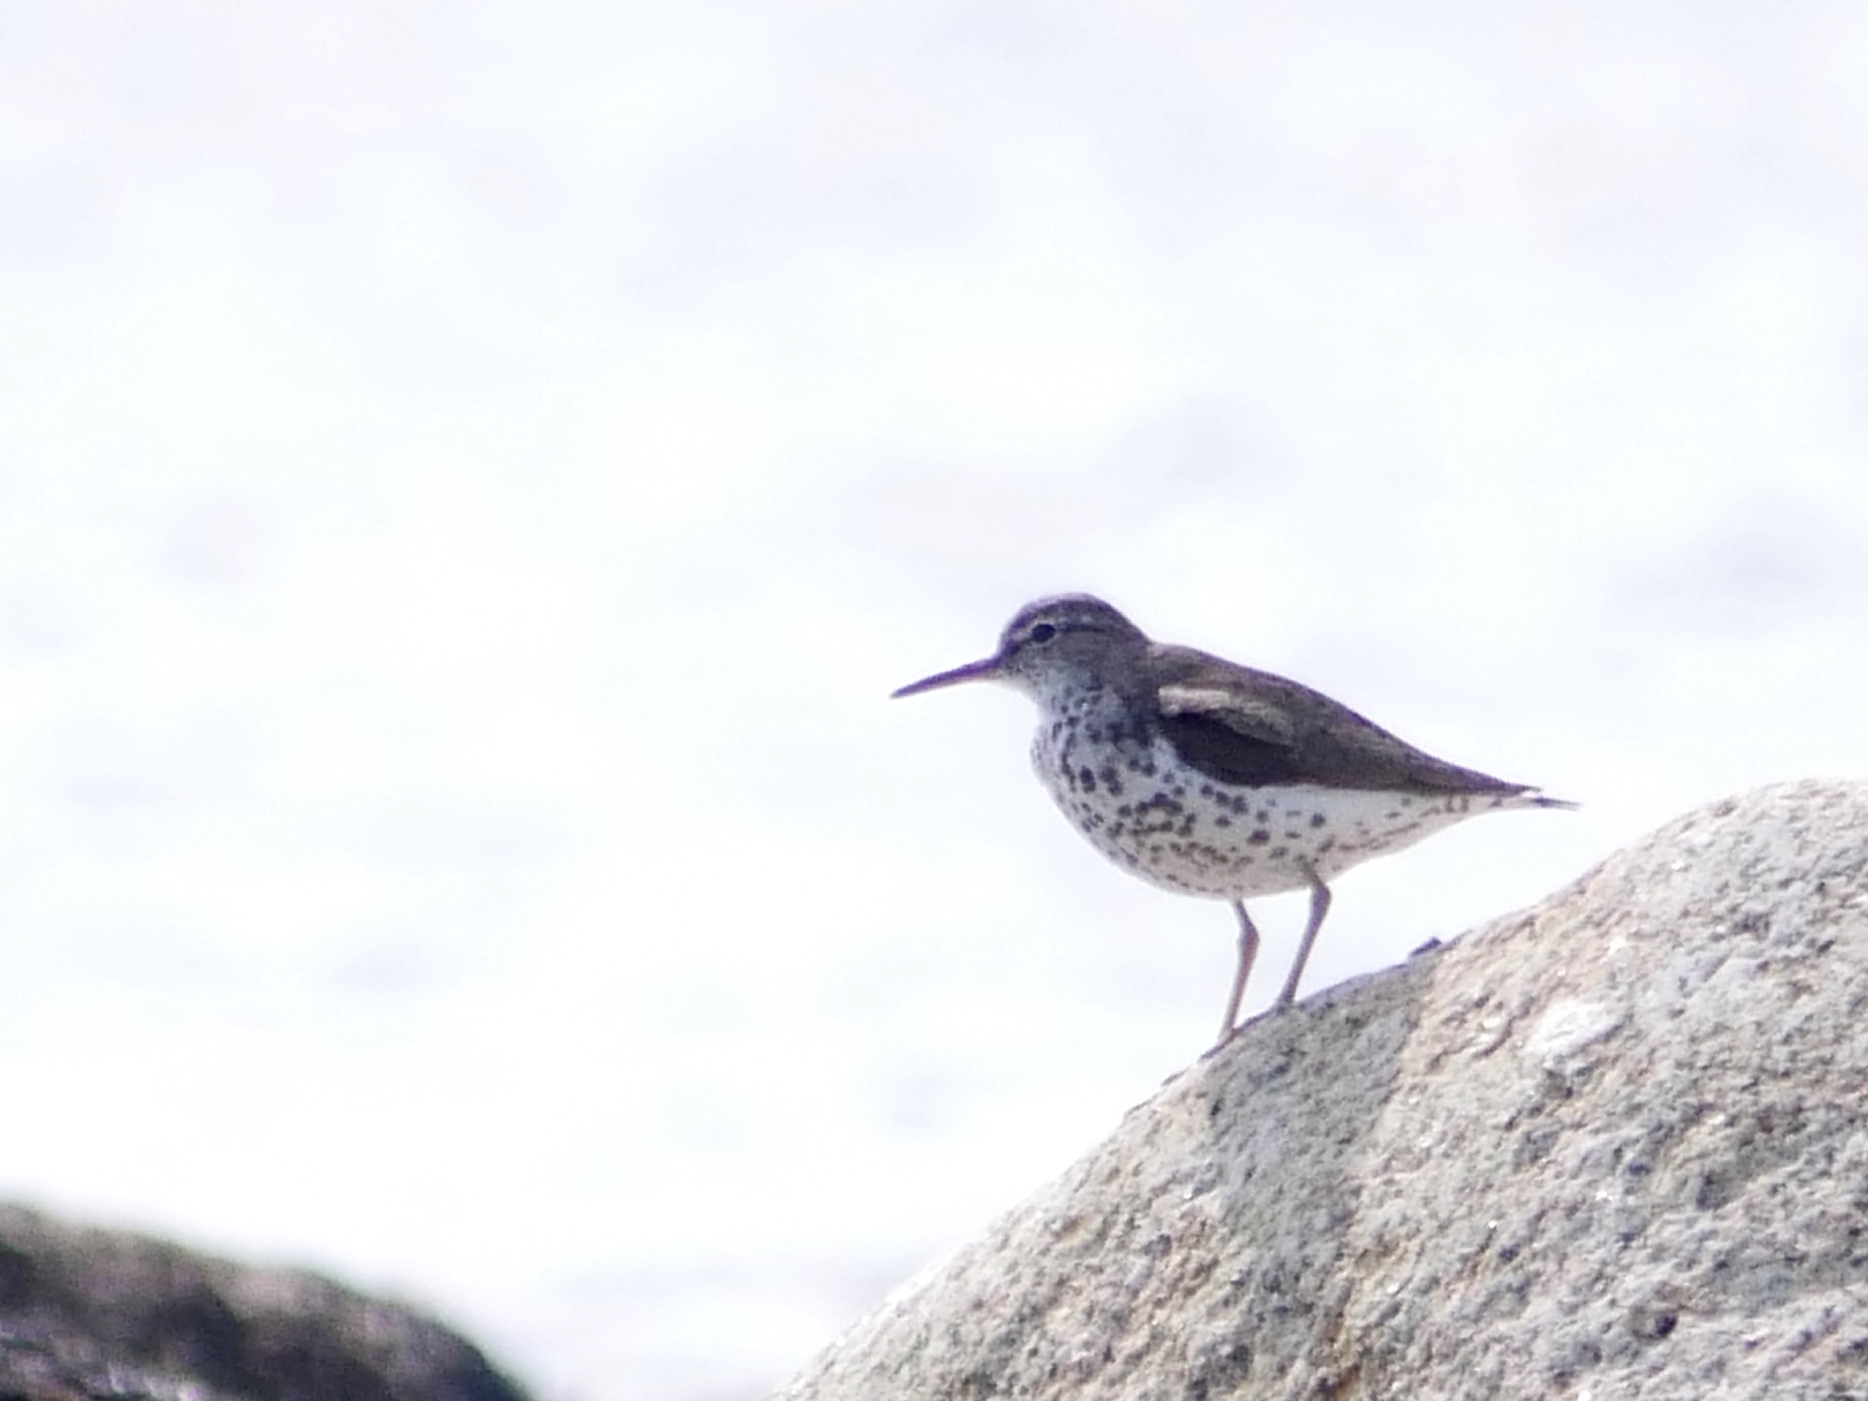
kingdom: Animalia
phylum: Chordata
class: Aves
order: Charadriiformes
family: Scolopacidae
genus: Actitis
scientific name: Actitis macularius
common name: Spotted sandpiper
